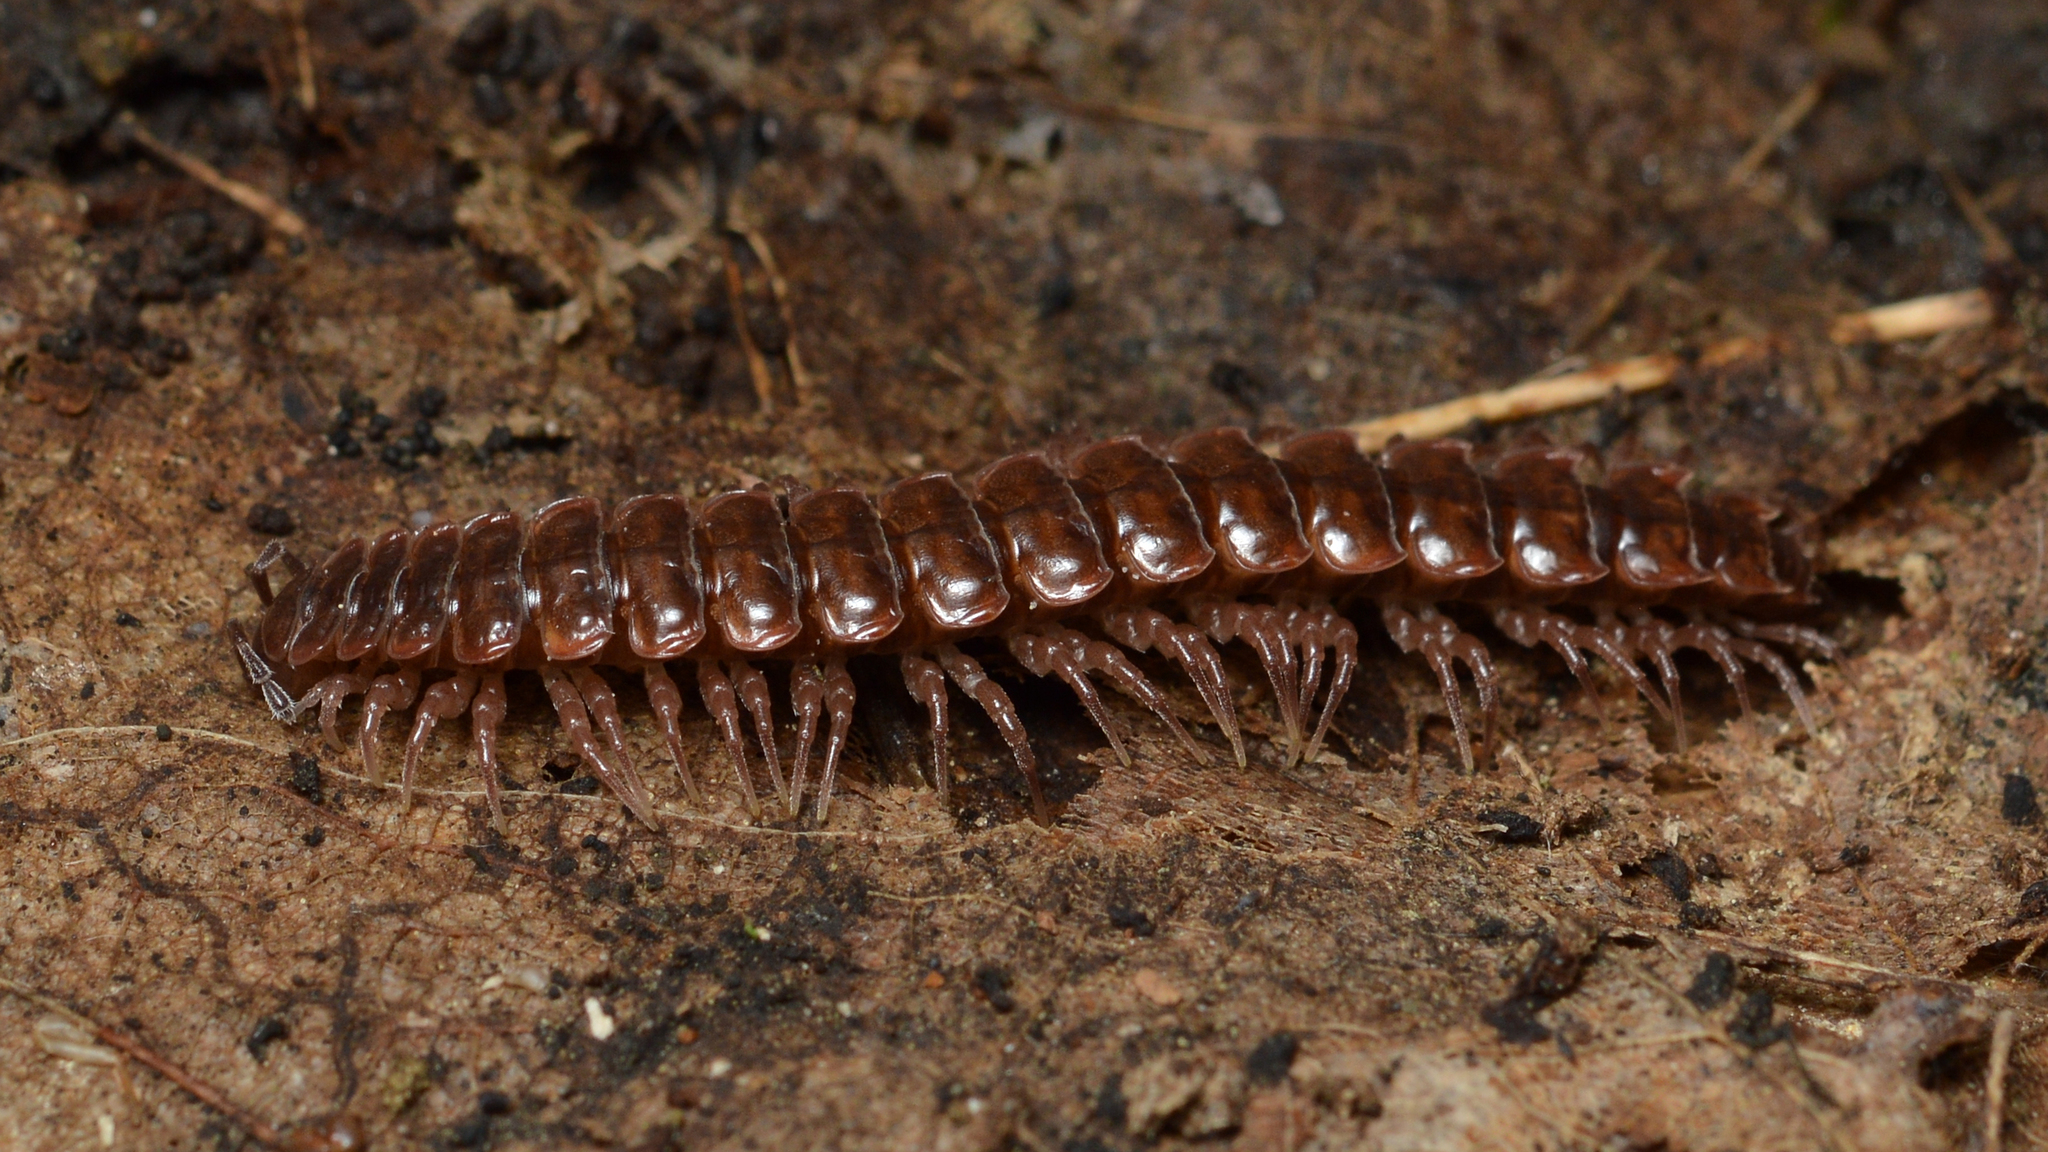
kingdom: Animalia
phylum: Arthropoda
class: Diplopoda
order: Polydesmida
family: Polydesmidae
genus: Pseudopolydesmus
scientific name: Pseudopolydesmus serratus
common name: Common pink flat-back millipede
